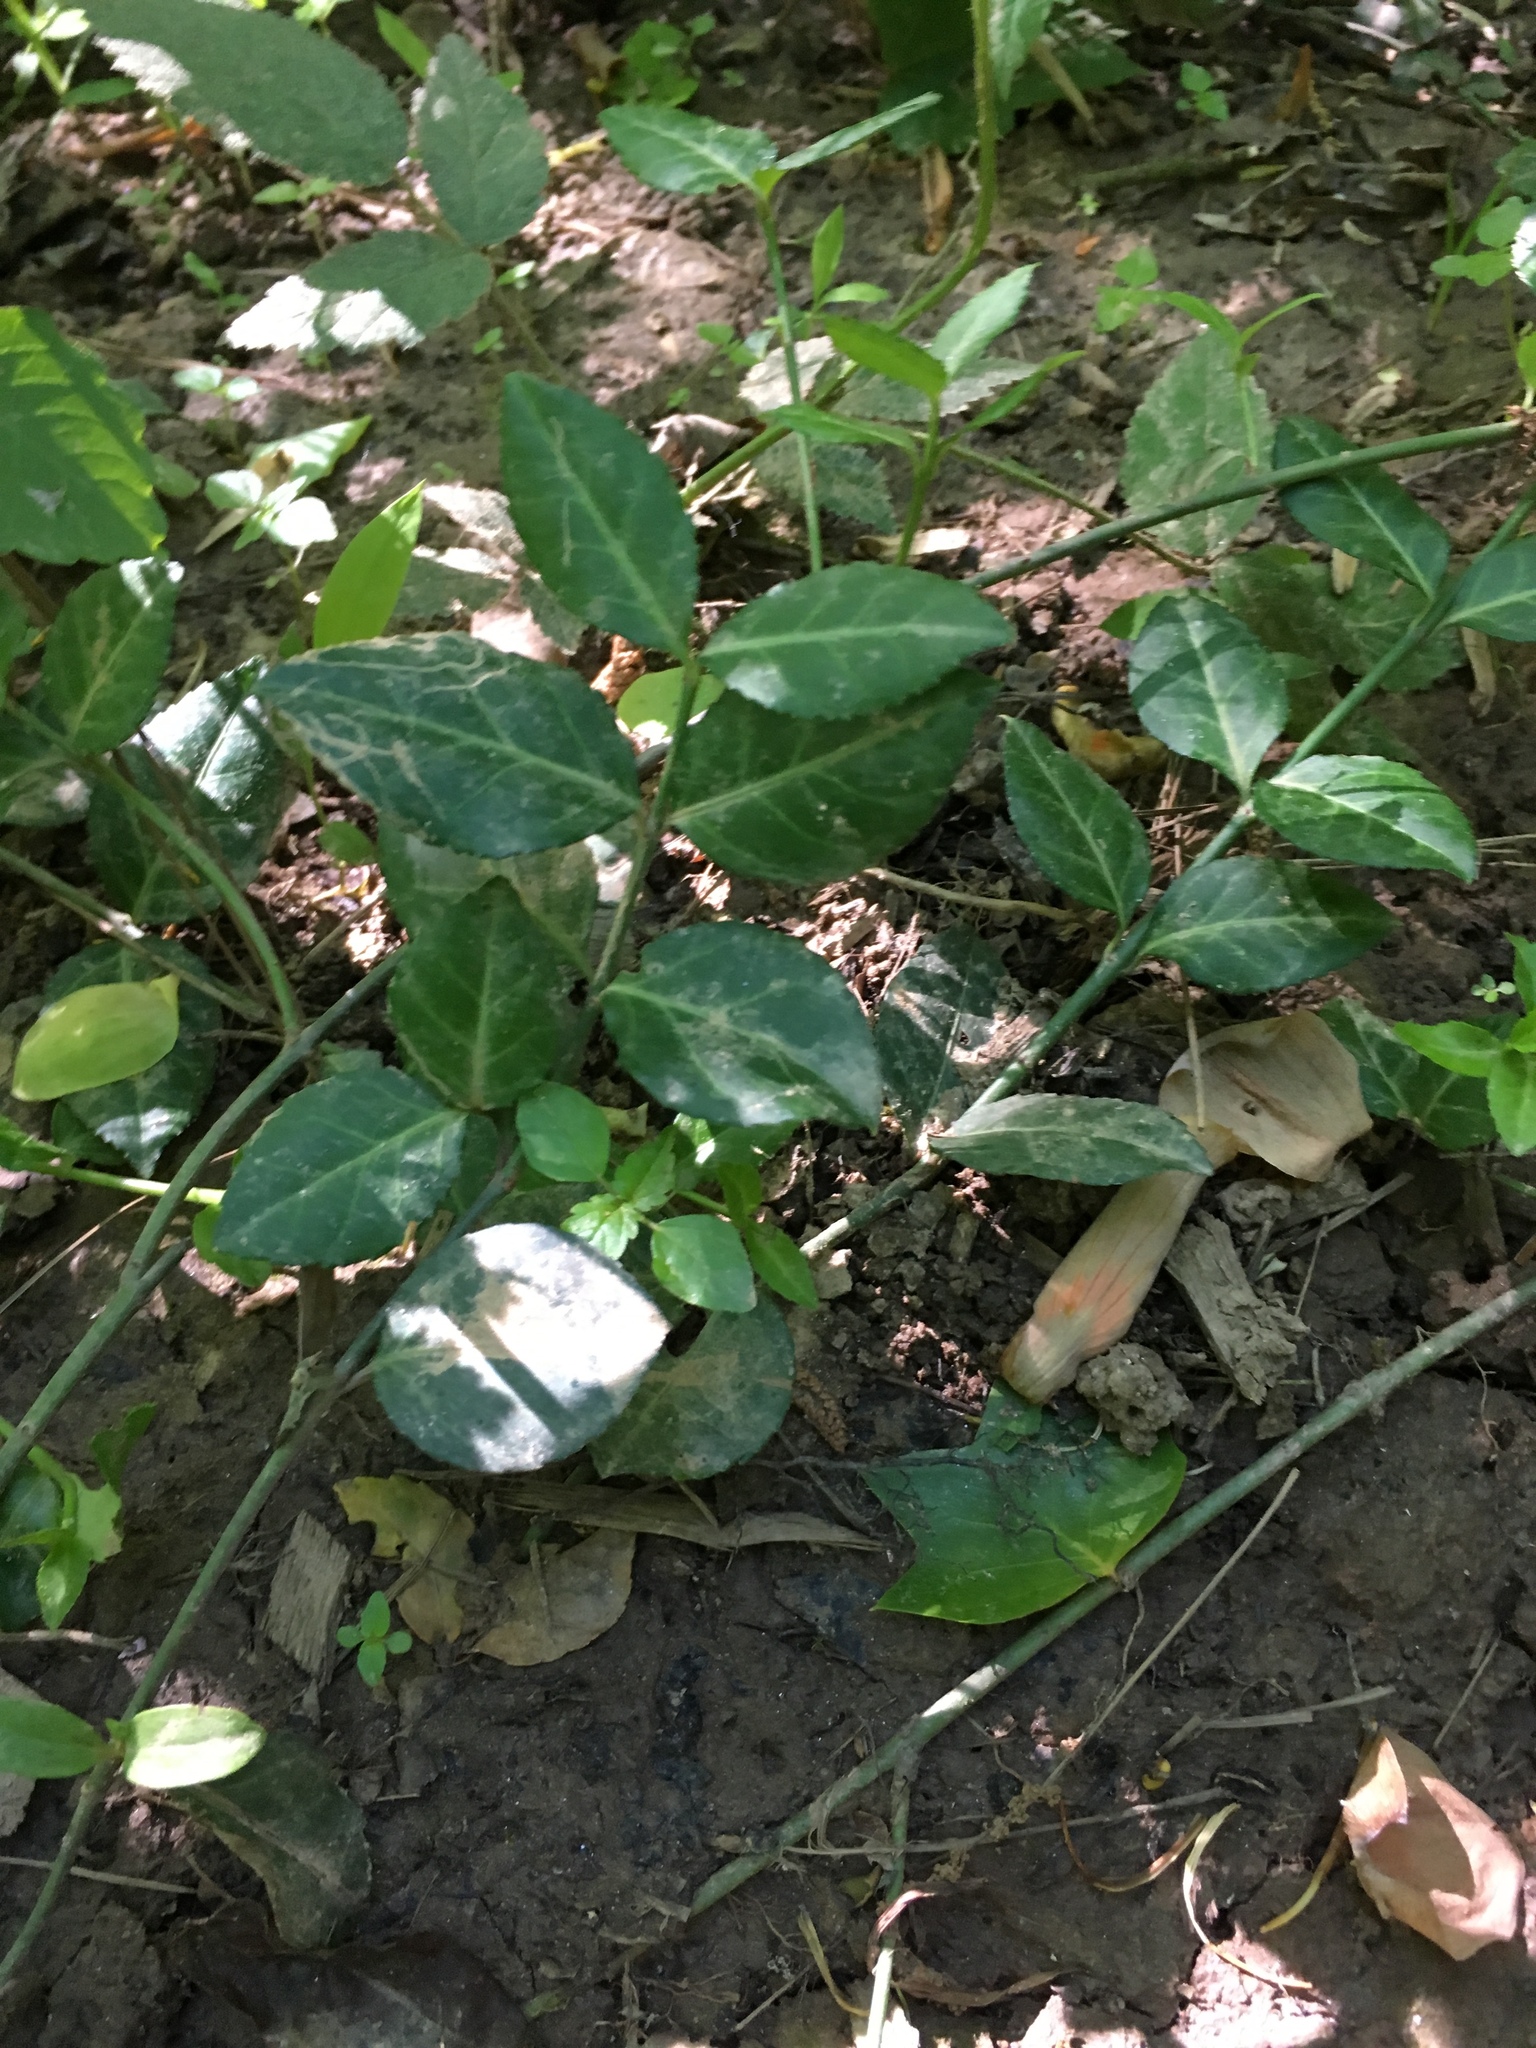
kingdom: Plantae
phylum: Tracheophyta
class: Magnoliopsida
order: Celastrales
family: Celastraceae
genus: Euonymus
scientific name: Euonymus fortunei
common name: Climbing euonymus
